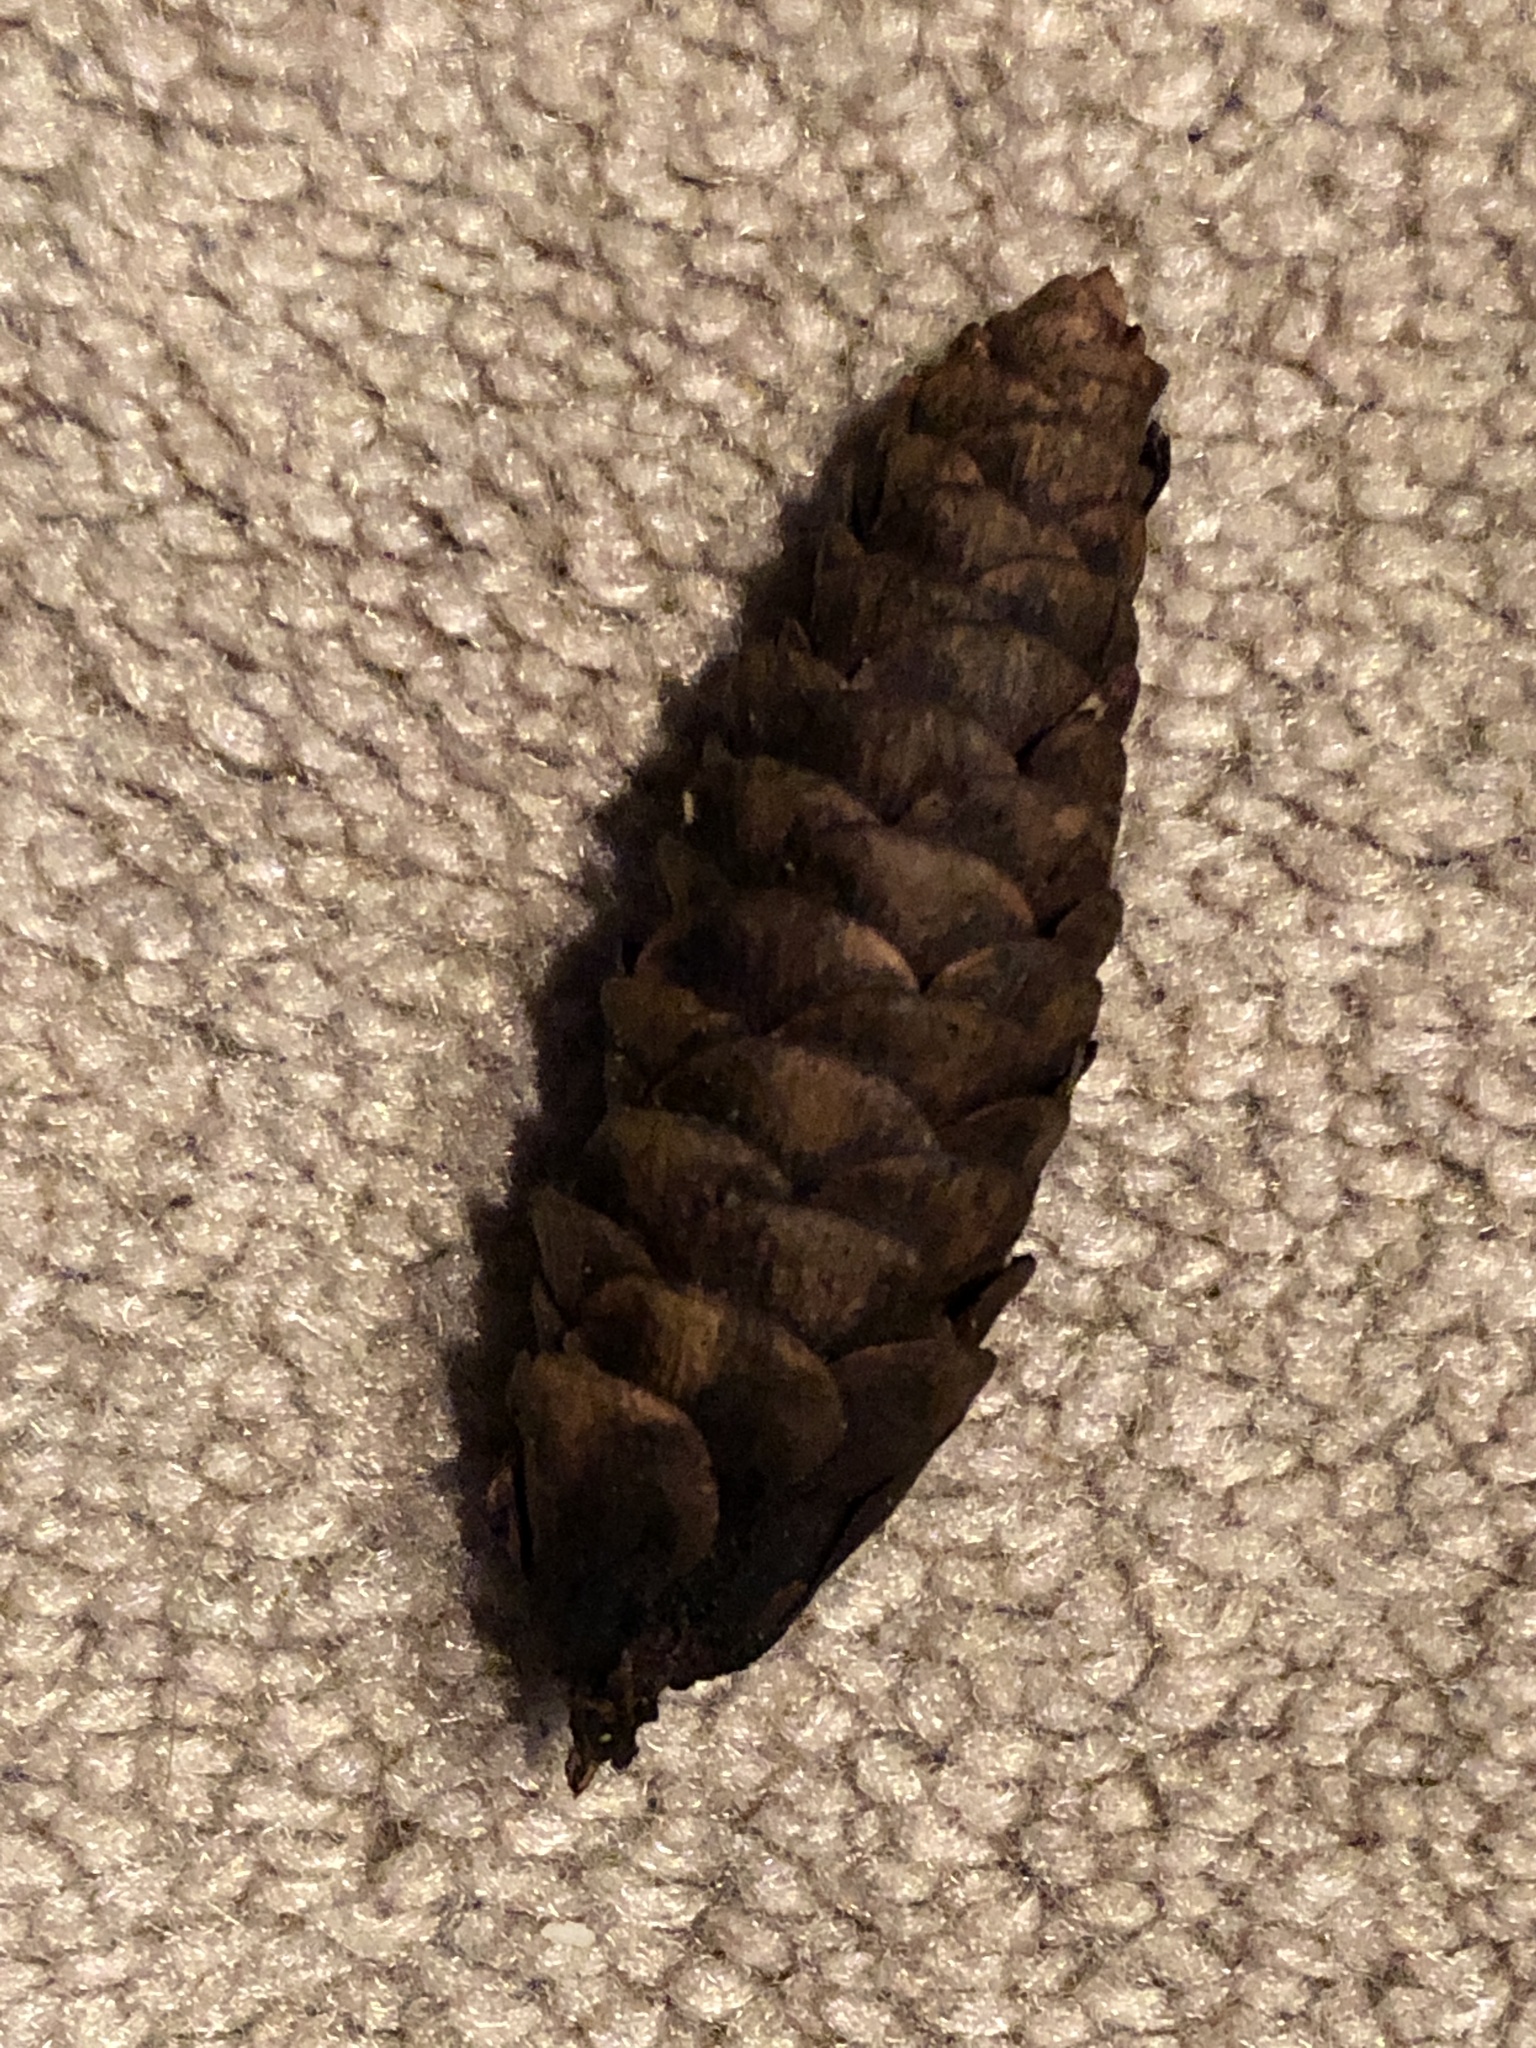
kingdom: Plantae
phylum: Tracheophyta
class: Pinopsida
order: Pinales
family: Pinaceae
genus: Picea
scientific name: Picea glauca
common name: White spruce
